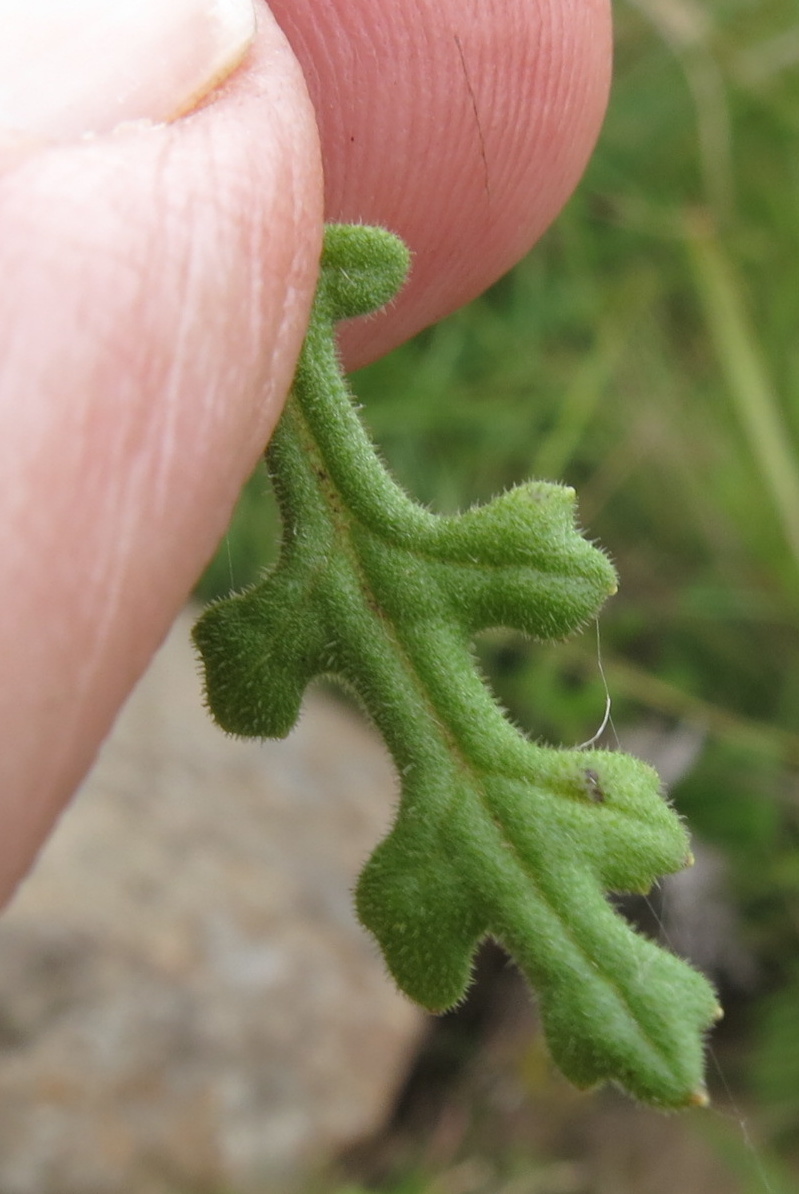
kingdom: Plantae
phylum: Tracheophyta
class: Magnoliopsida
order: Asterales
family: Asteraceae
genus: Senecio
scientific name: Senecio subrubriflorus
